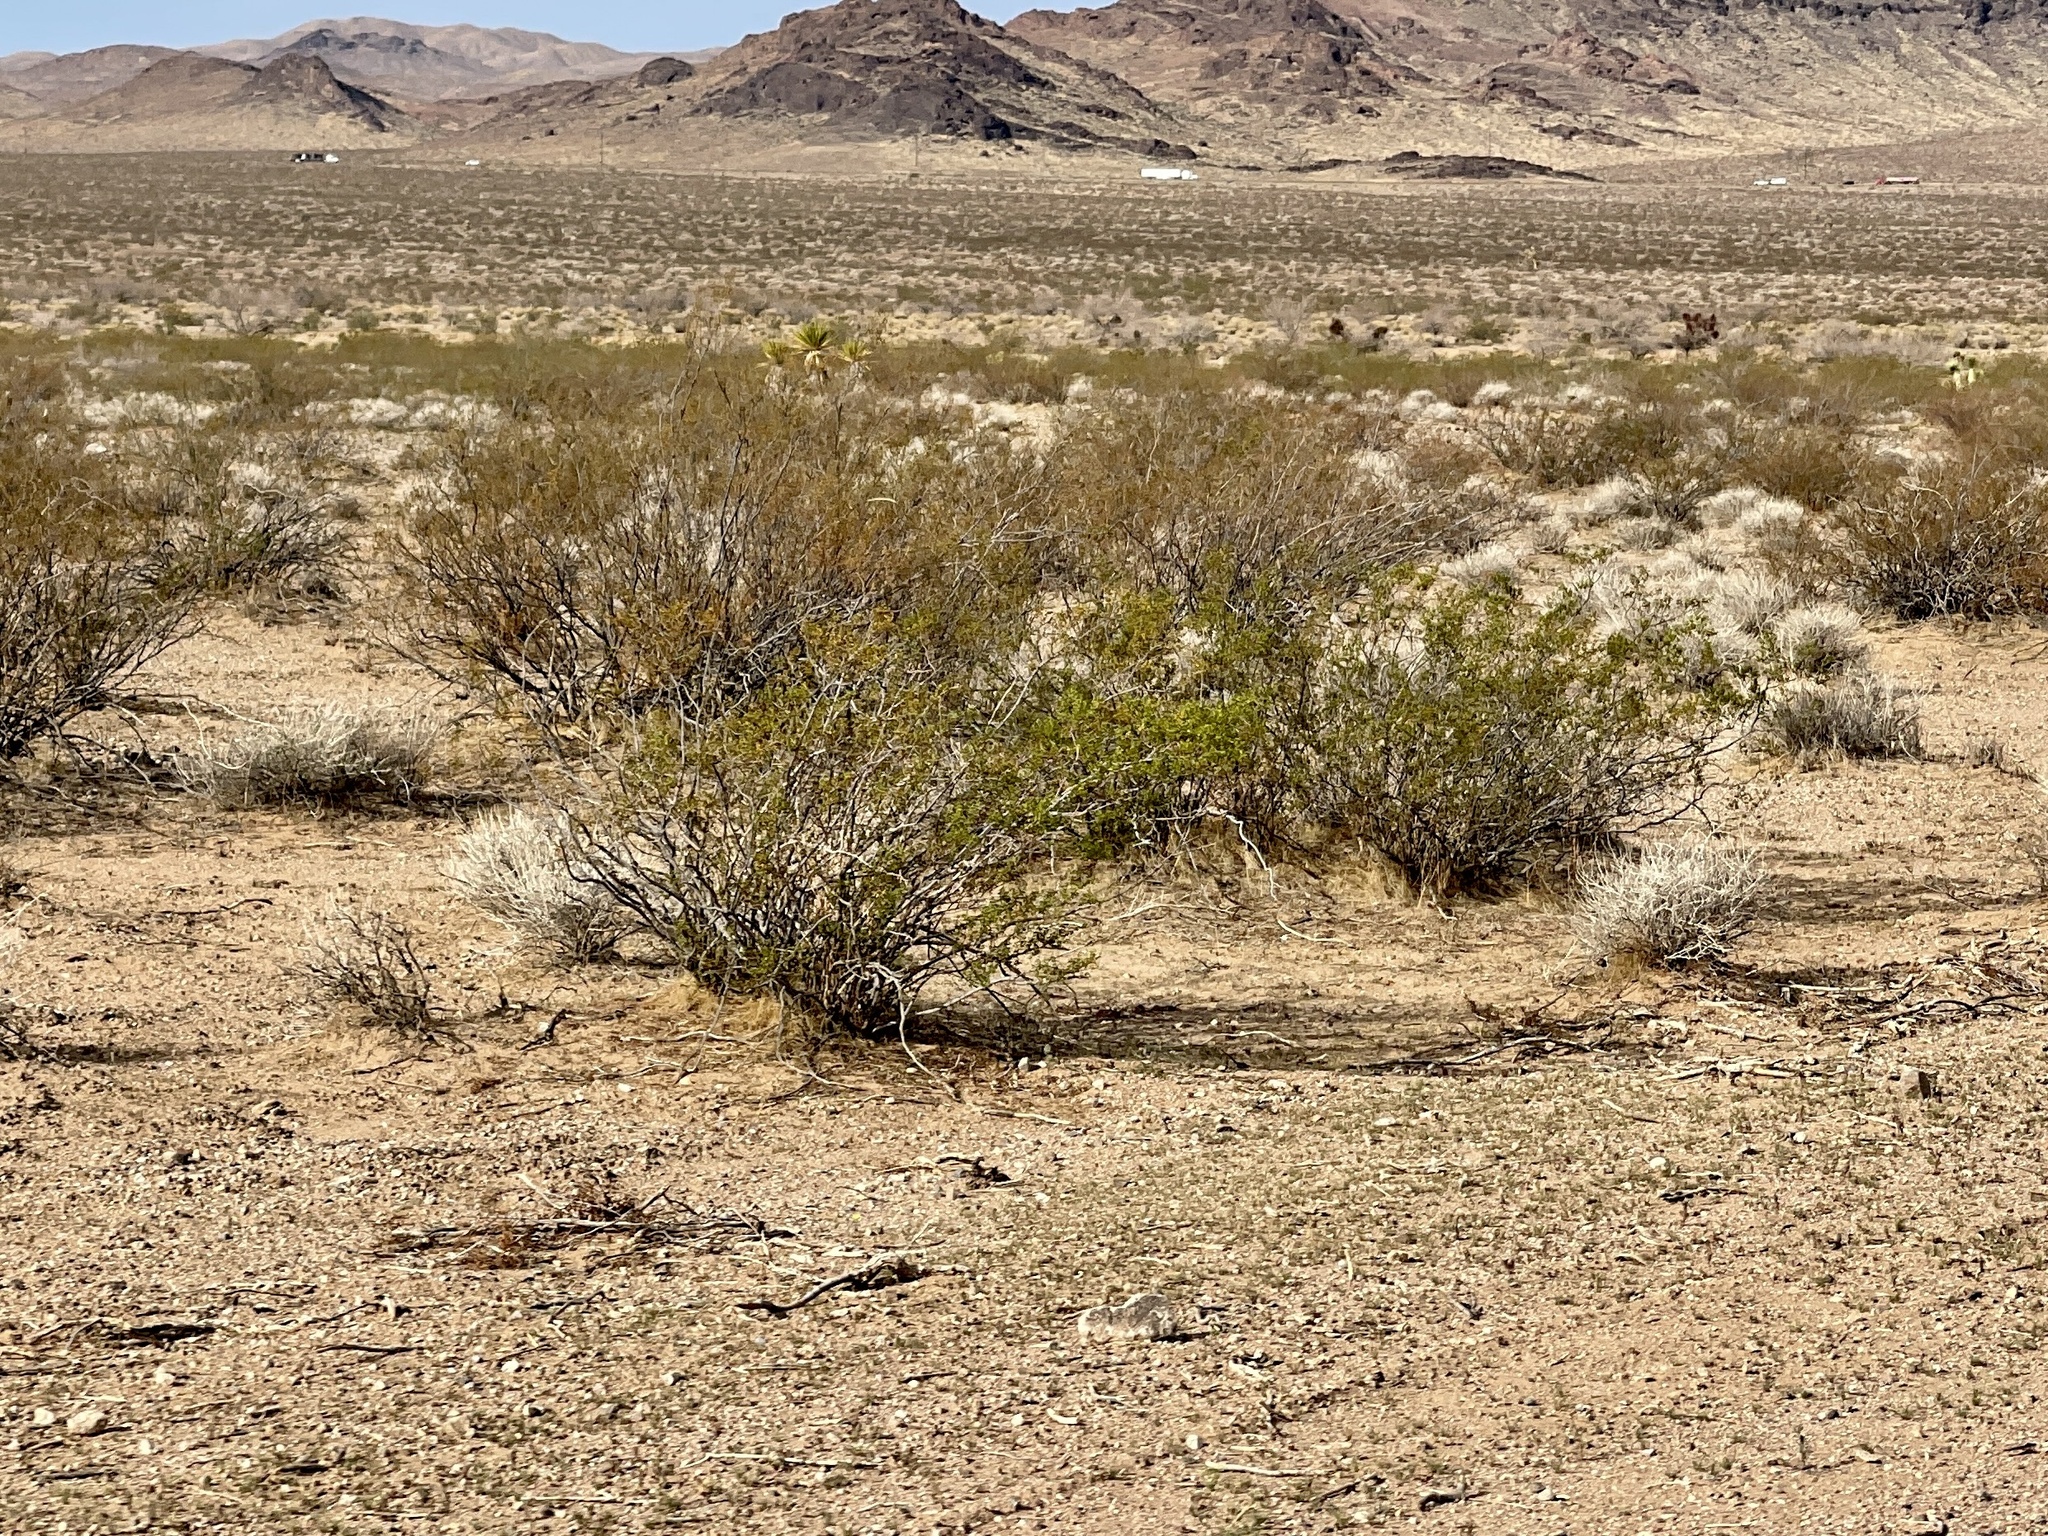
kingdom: Plantae
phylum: Tracheophyta
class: Magnoliopsida
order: Zygophyllales
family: Zygophyllaceae
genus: Larrea
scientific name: Larrea tridentata
